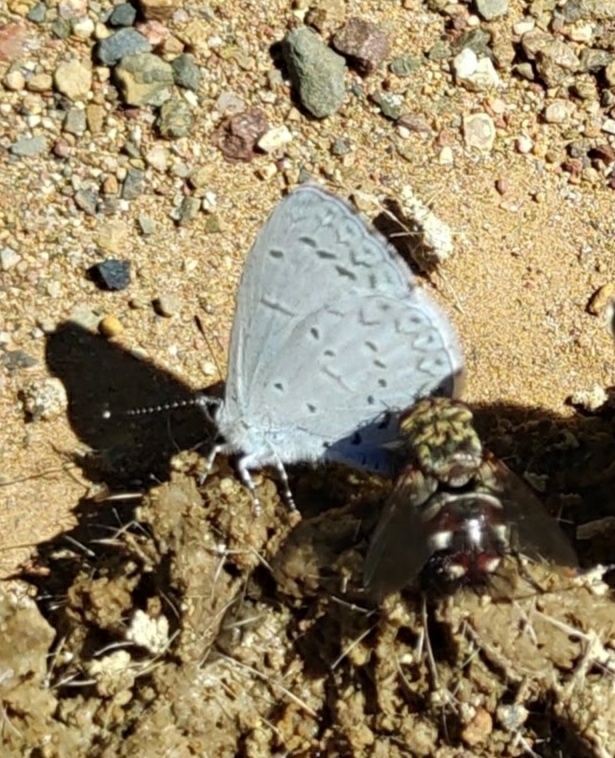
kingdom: Animalia
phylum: Arthropoda
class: Insecta
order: Lepidoptera
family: Lycaenidae
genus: Celastrina
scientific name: Celastrina ladon
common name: Spring azure
